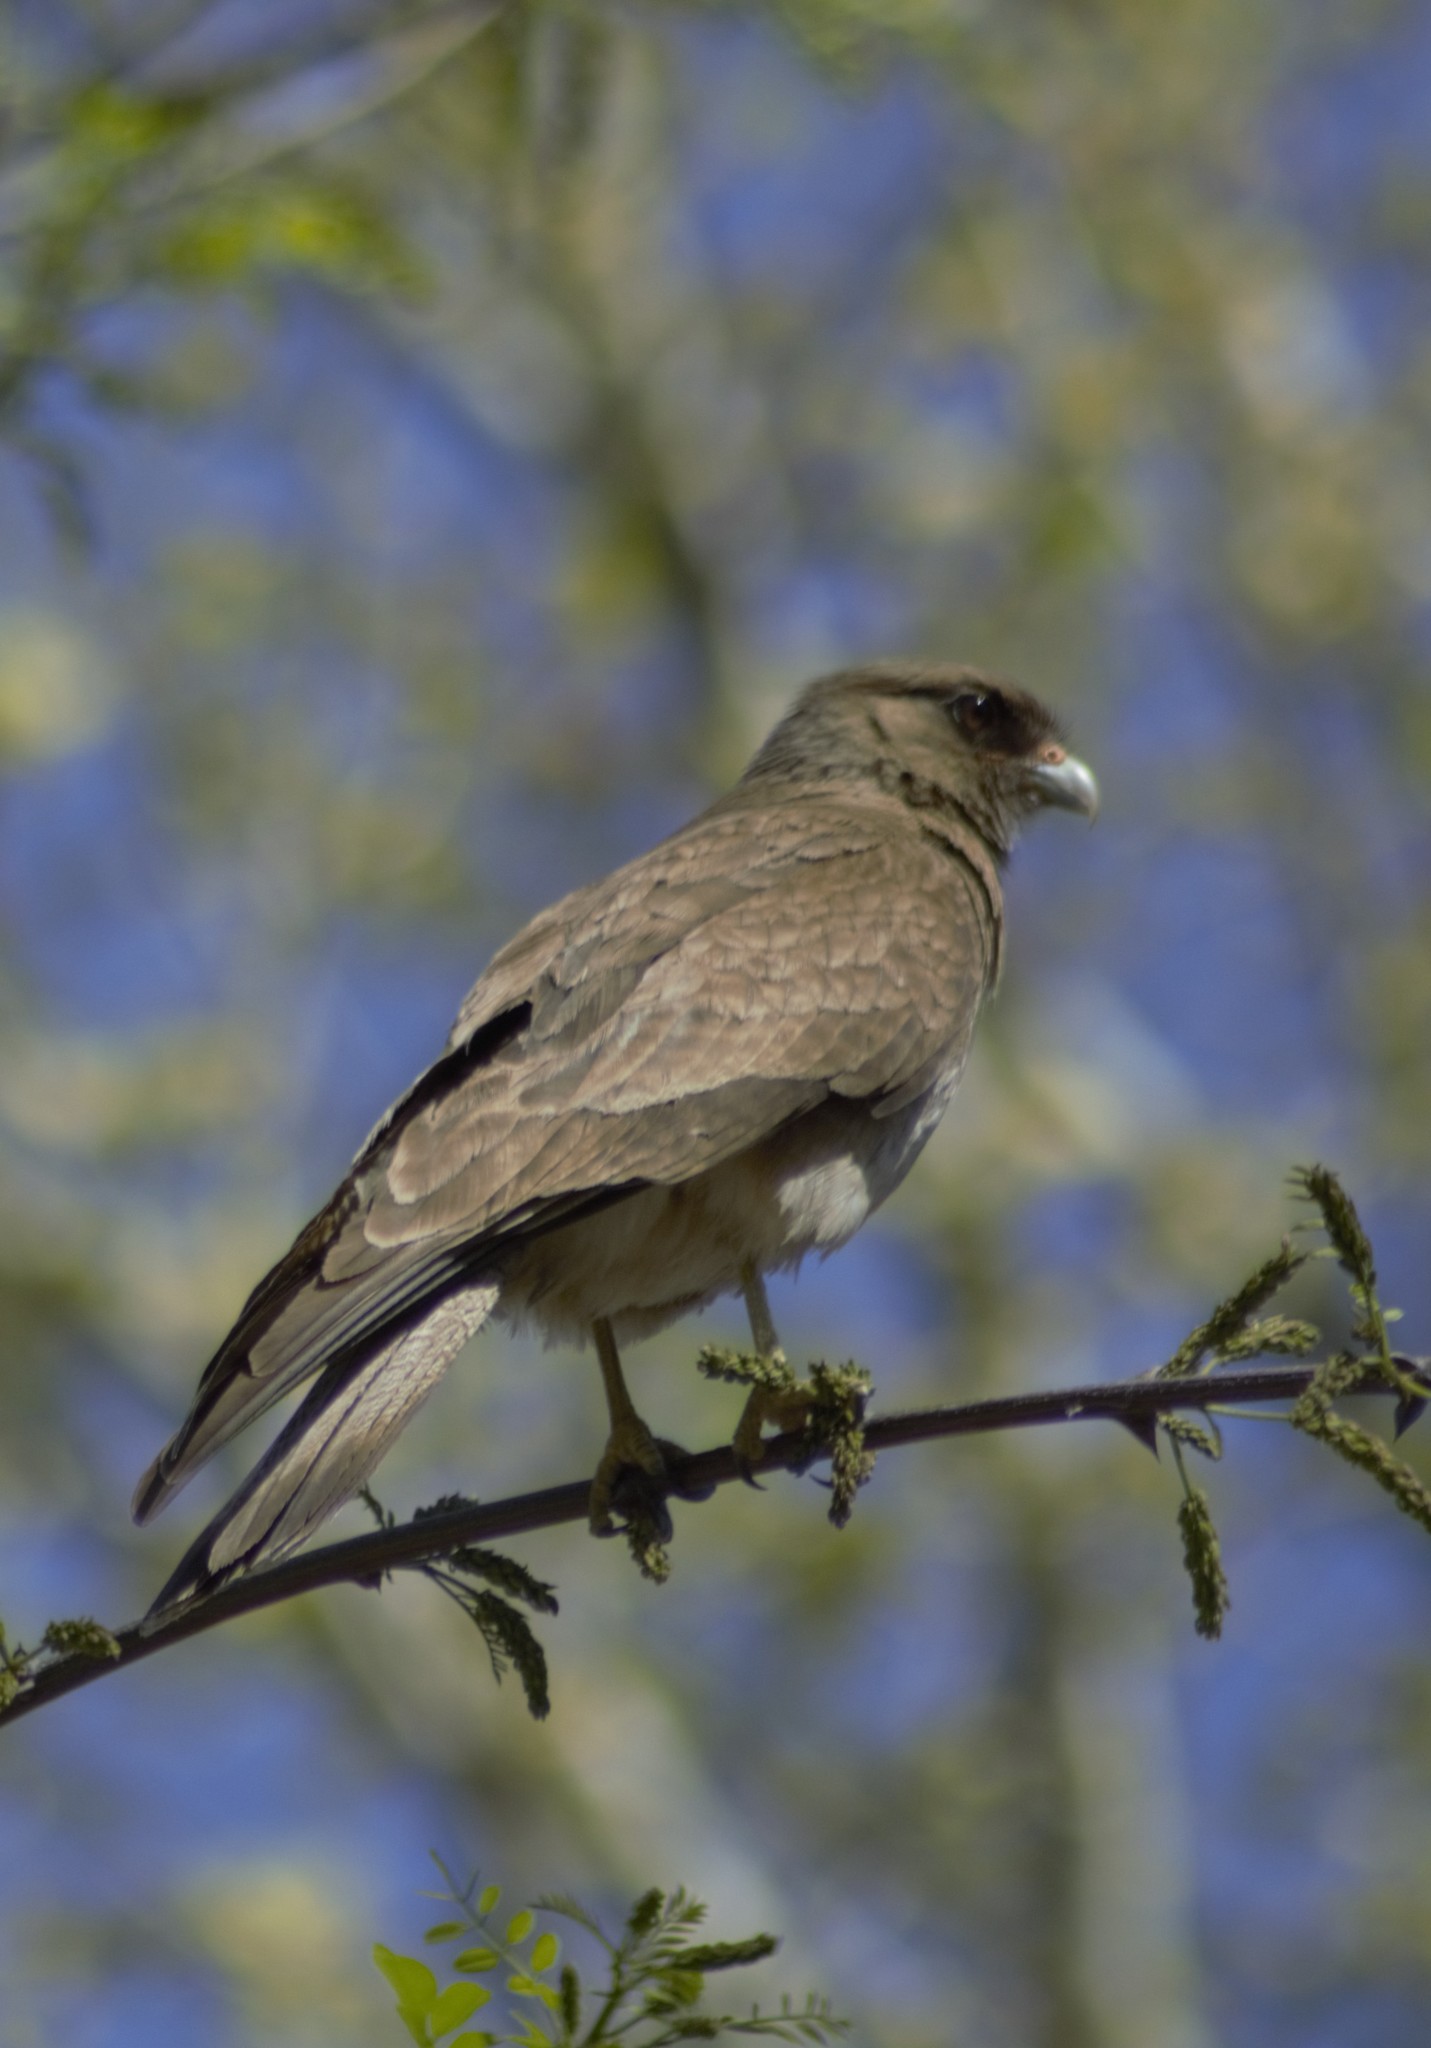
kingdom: Animalia
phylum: Chordata
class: Aves
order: Falconiformes
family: Falconidae
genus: Daptrius
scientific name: Daptrius
